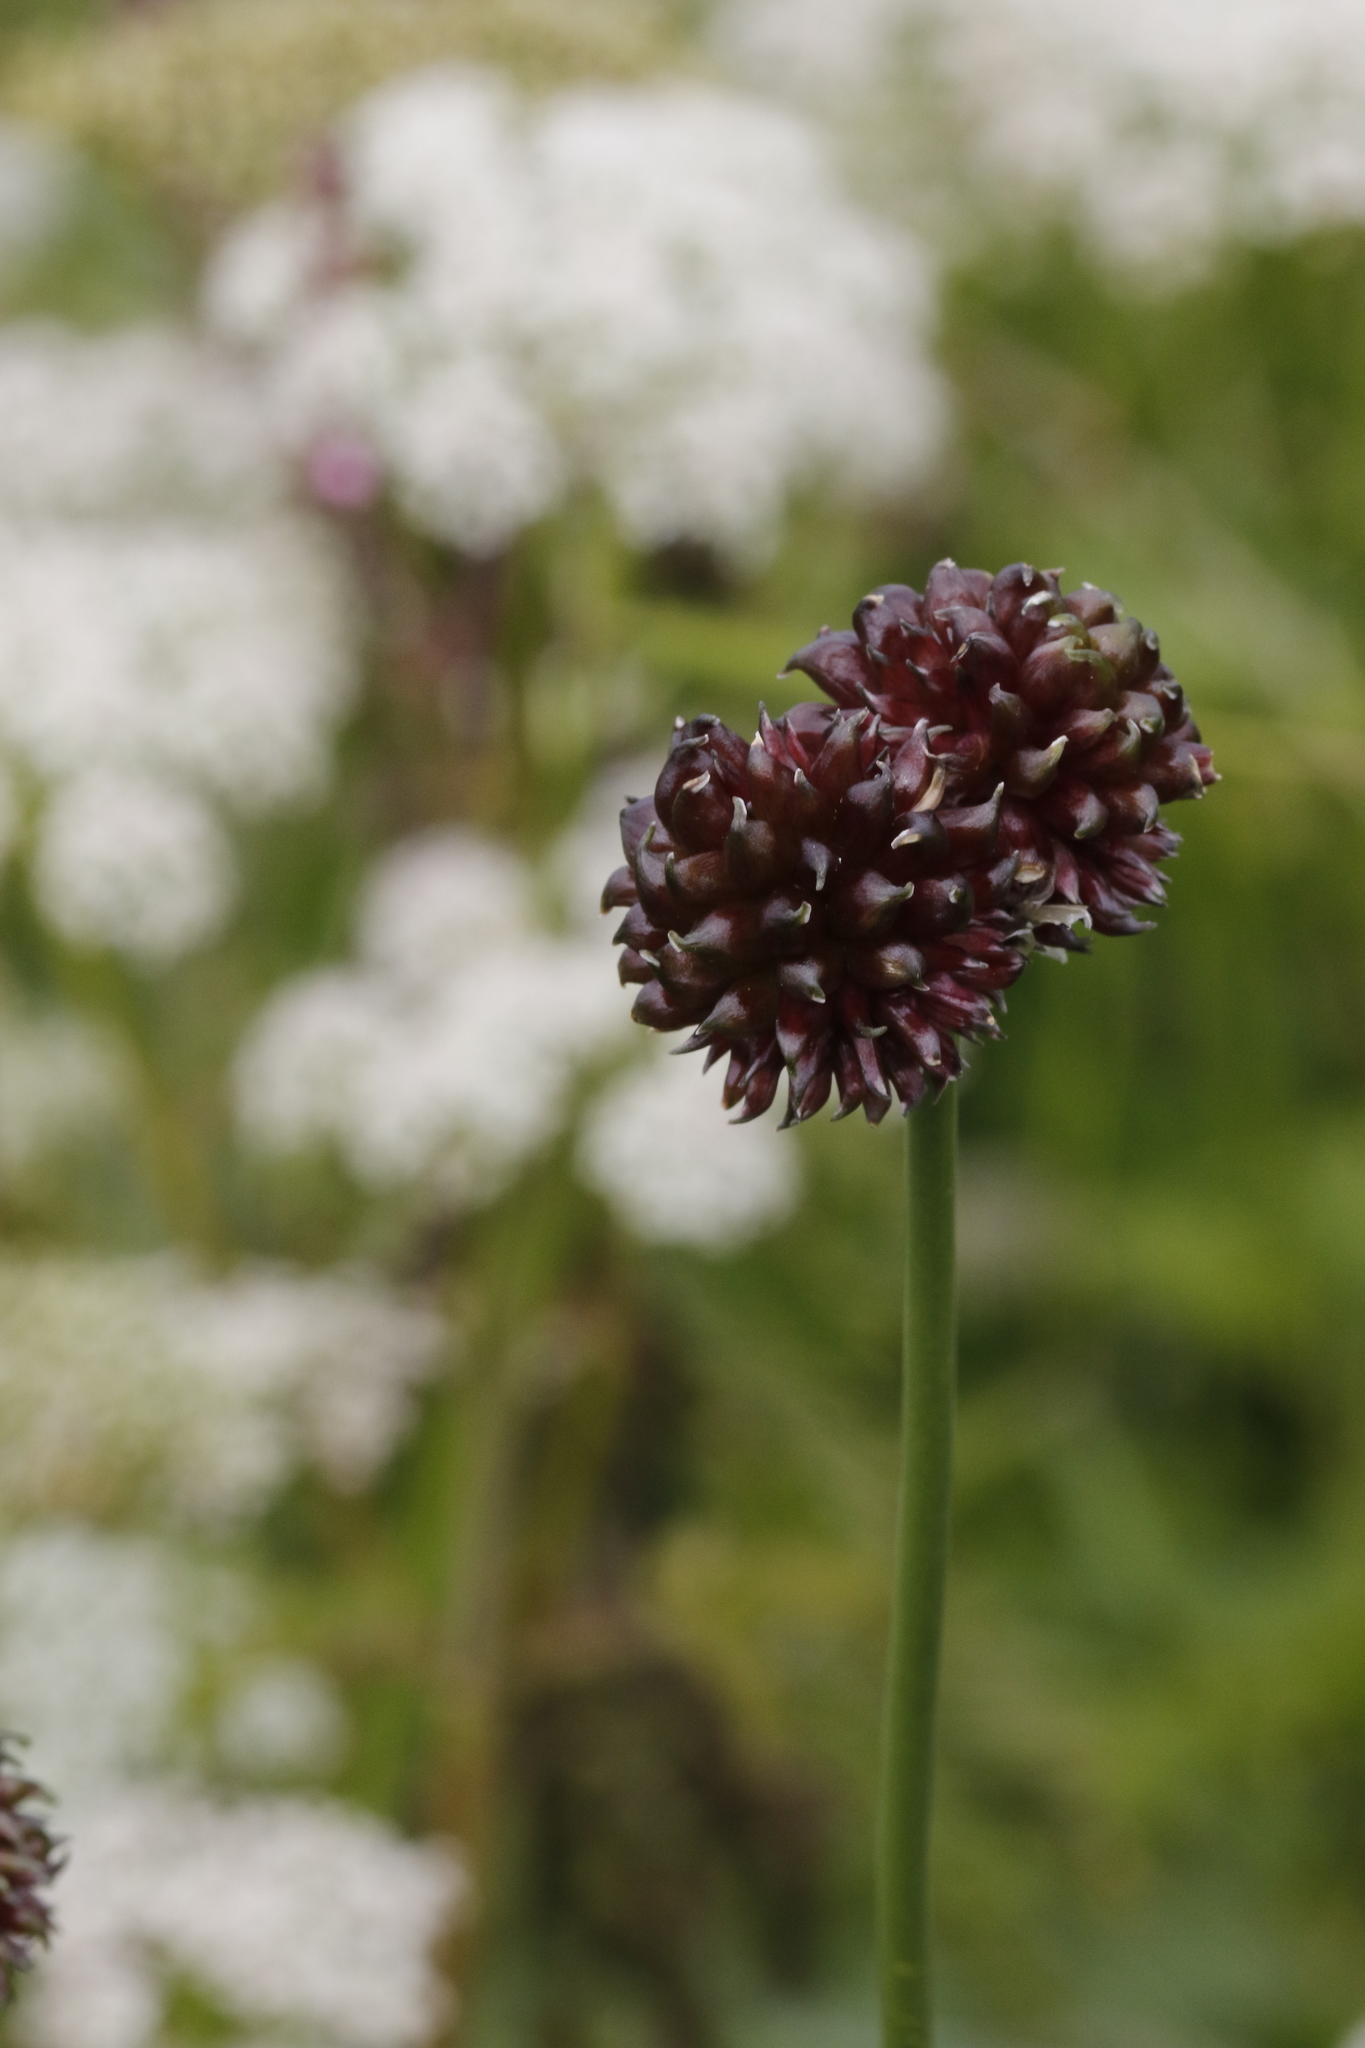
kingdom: Plantae
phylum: Tracheophyta
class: Liliopsida
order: Asparagales
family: Amaryllidaceae
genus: Allium
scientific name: Allium vineale
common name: Crow garlic
